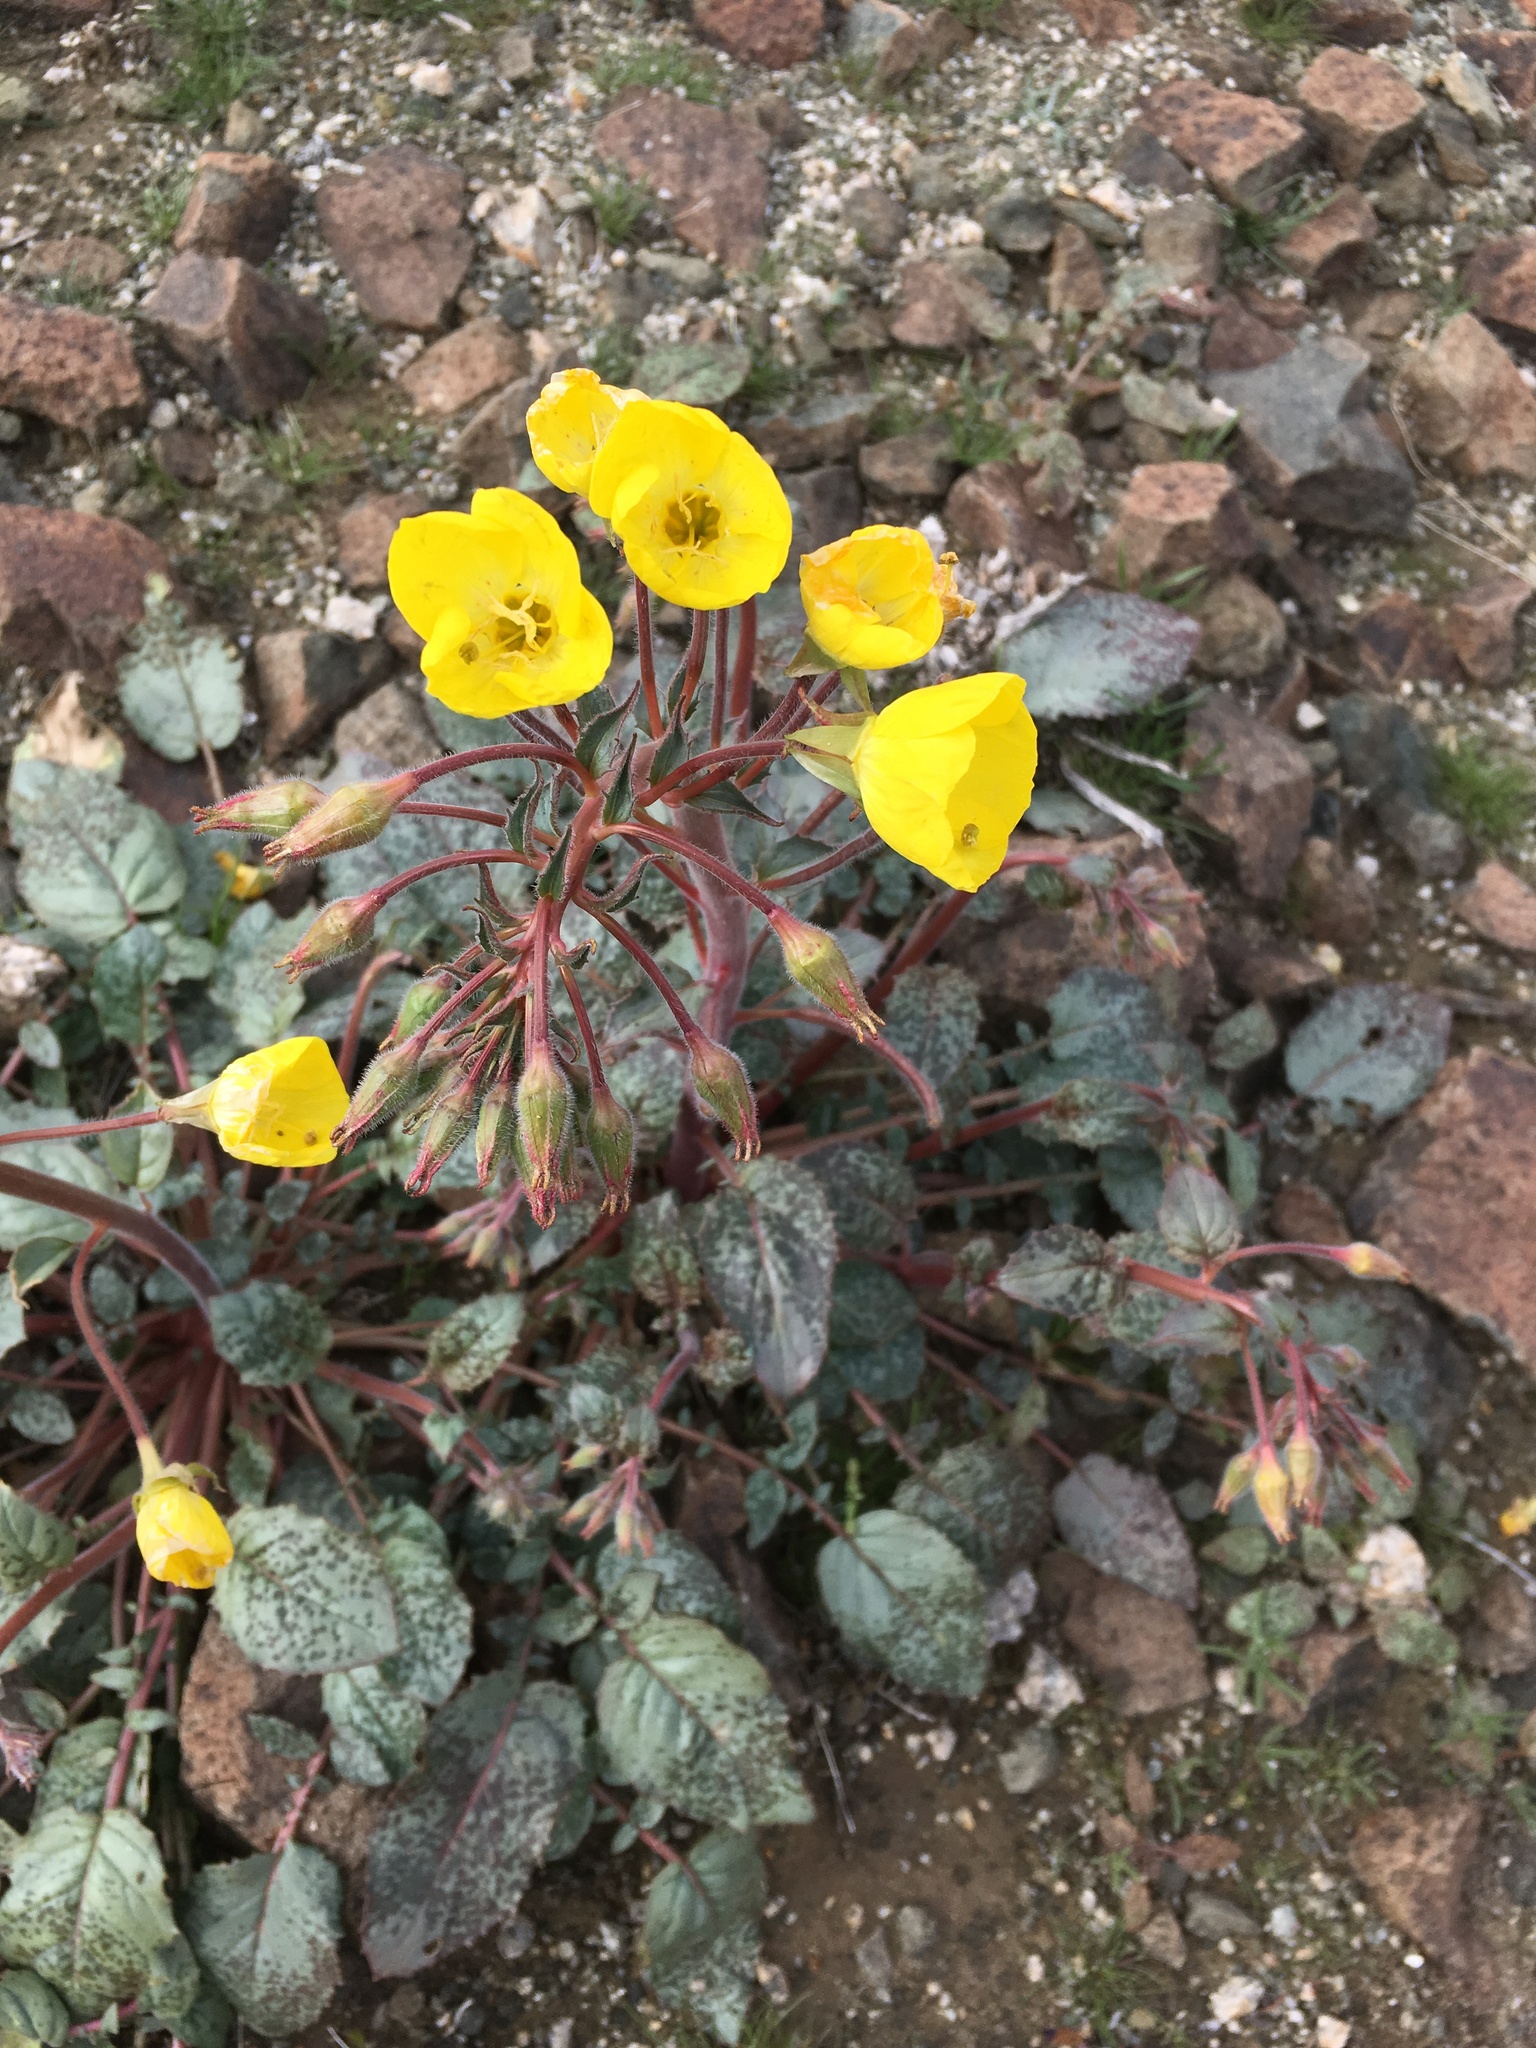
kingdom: Plantae
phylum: Tracheophyta
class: Magnoliopsida
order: Myrtales
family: Onagraceae
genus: Chylismia
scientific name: Chylismia brevipes
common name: Yellow cups
